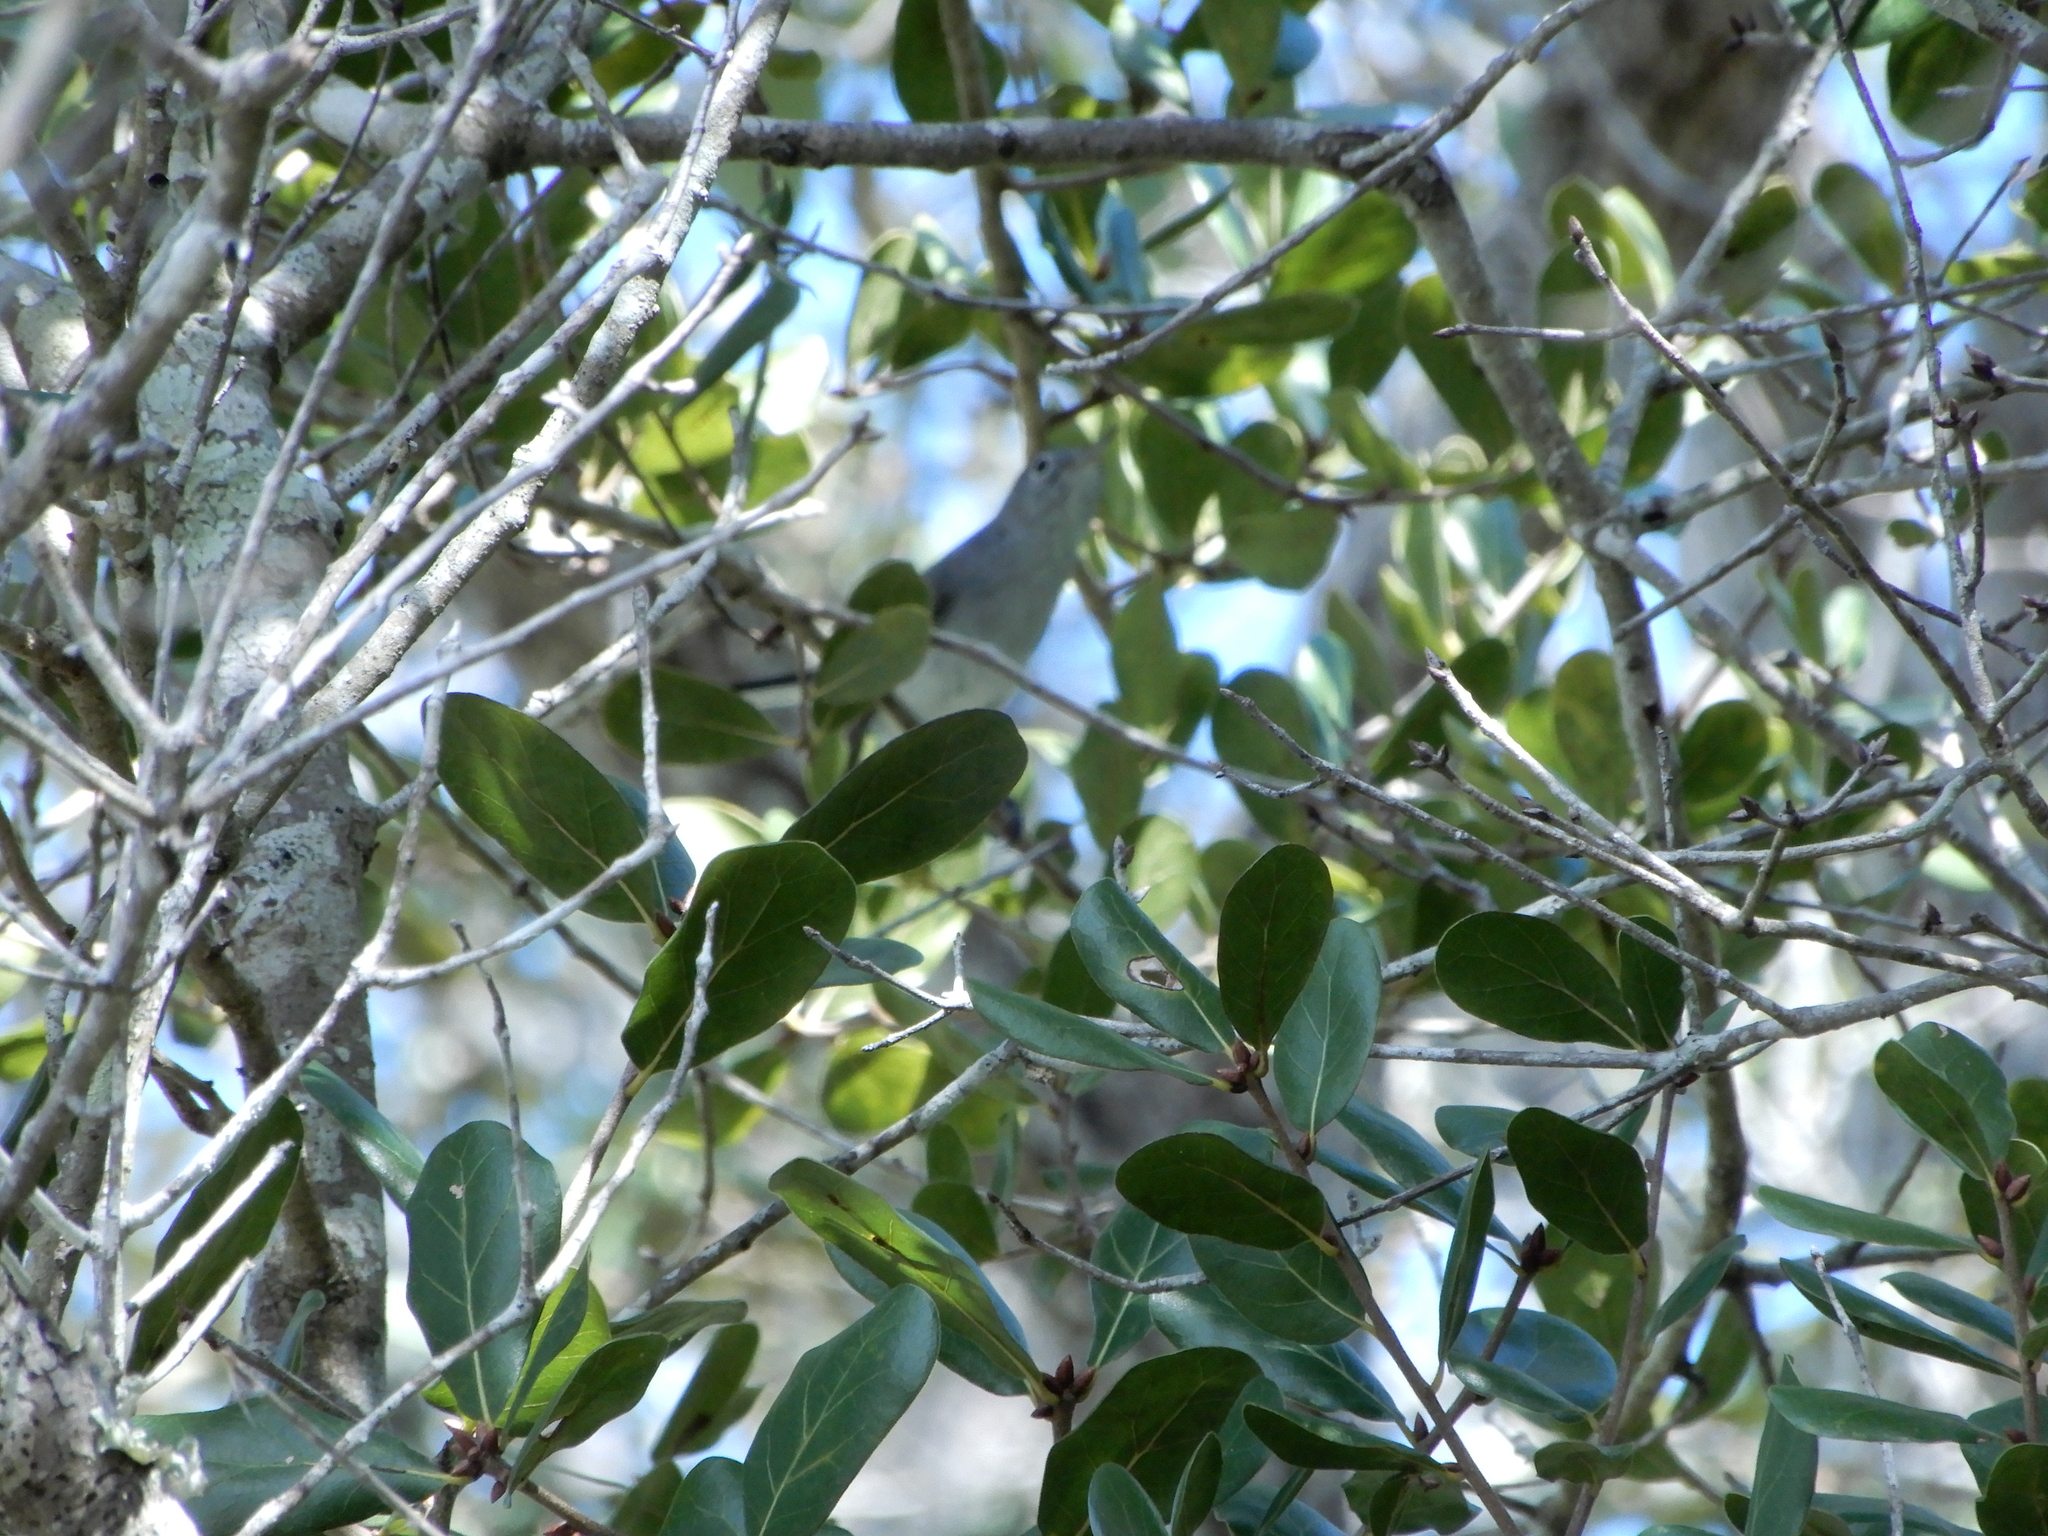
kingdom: Animalia
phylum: Chordata
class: Aves
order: Passeriformes
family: Polioptilidae
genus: Polioptila
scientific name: Polioptila caerulea
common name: Blue-gray gnatcatcher
